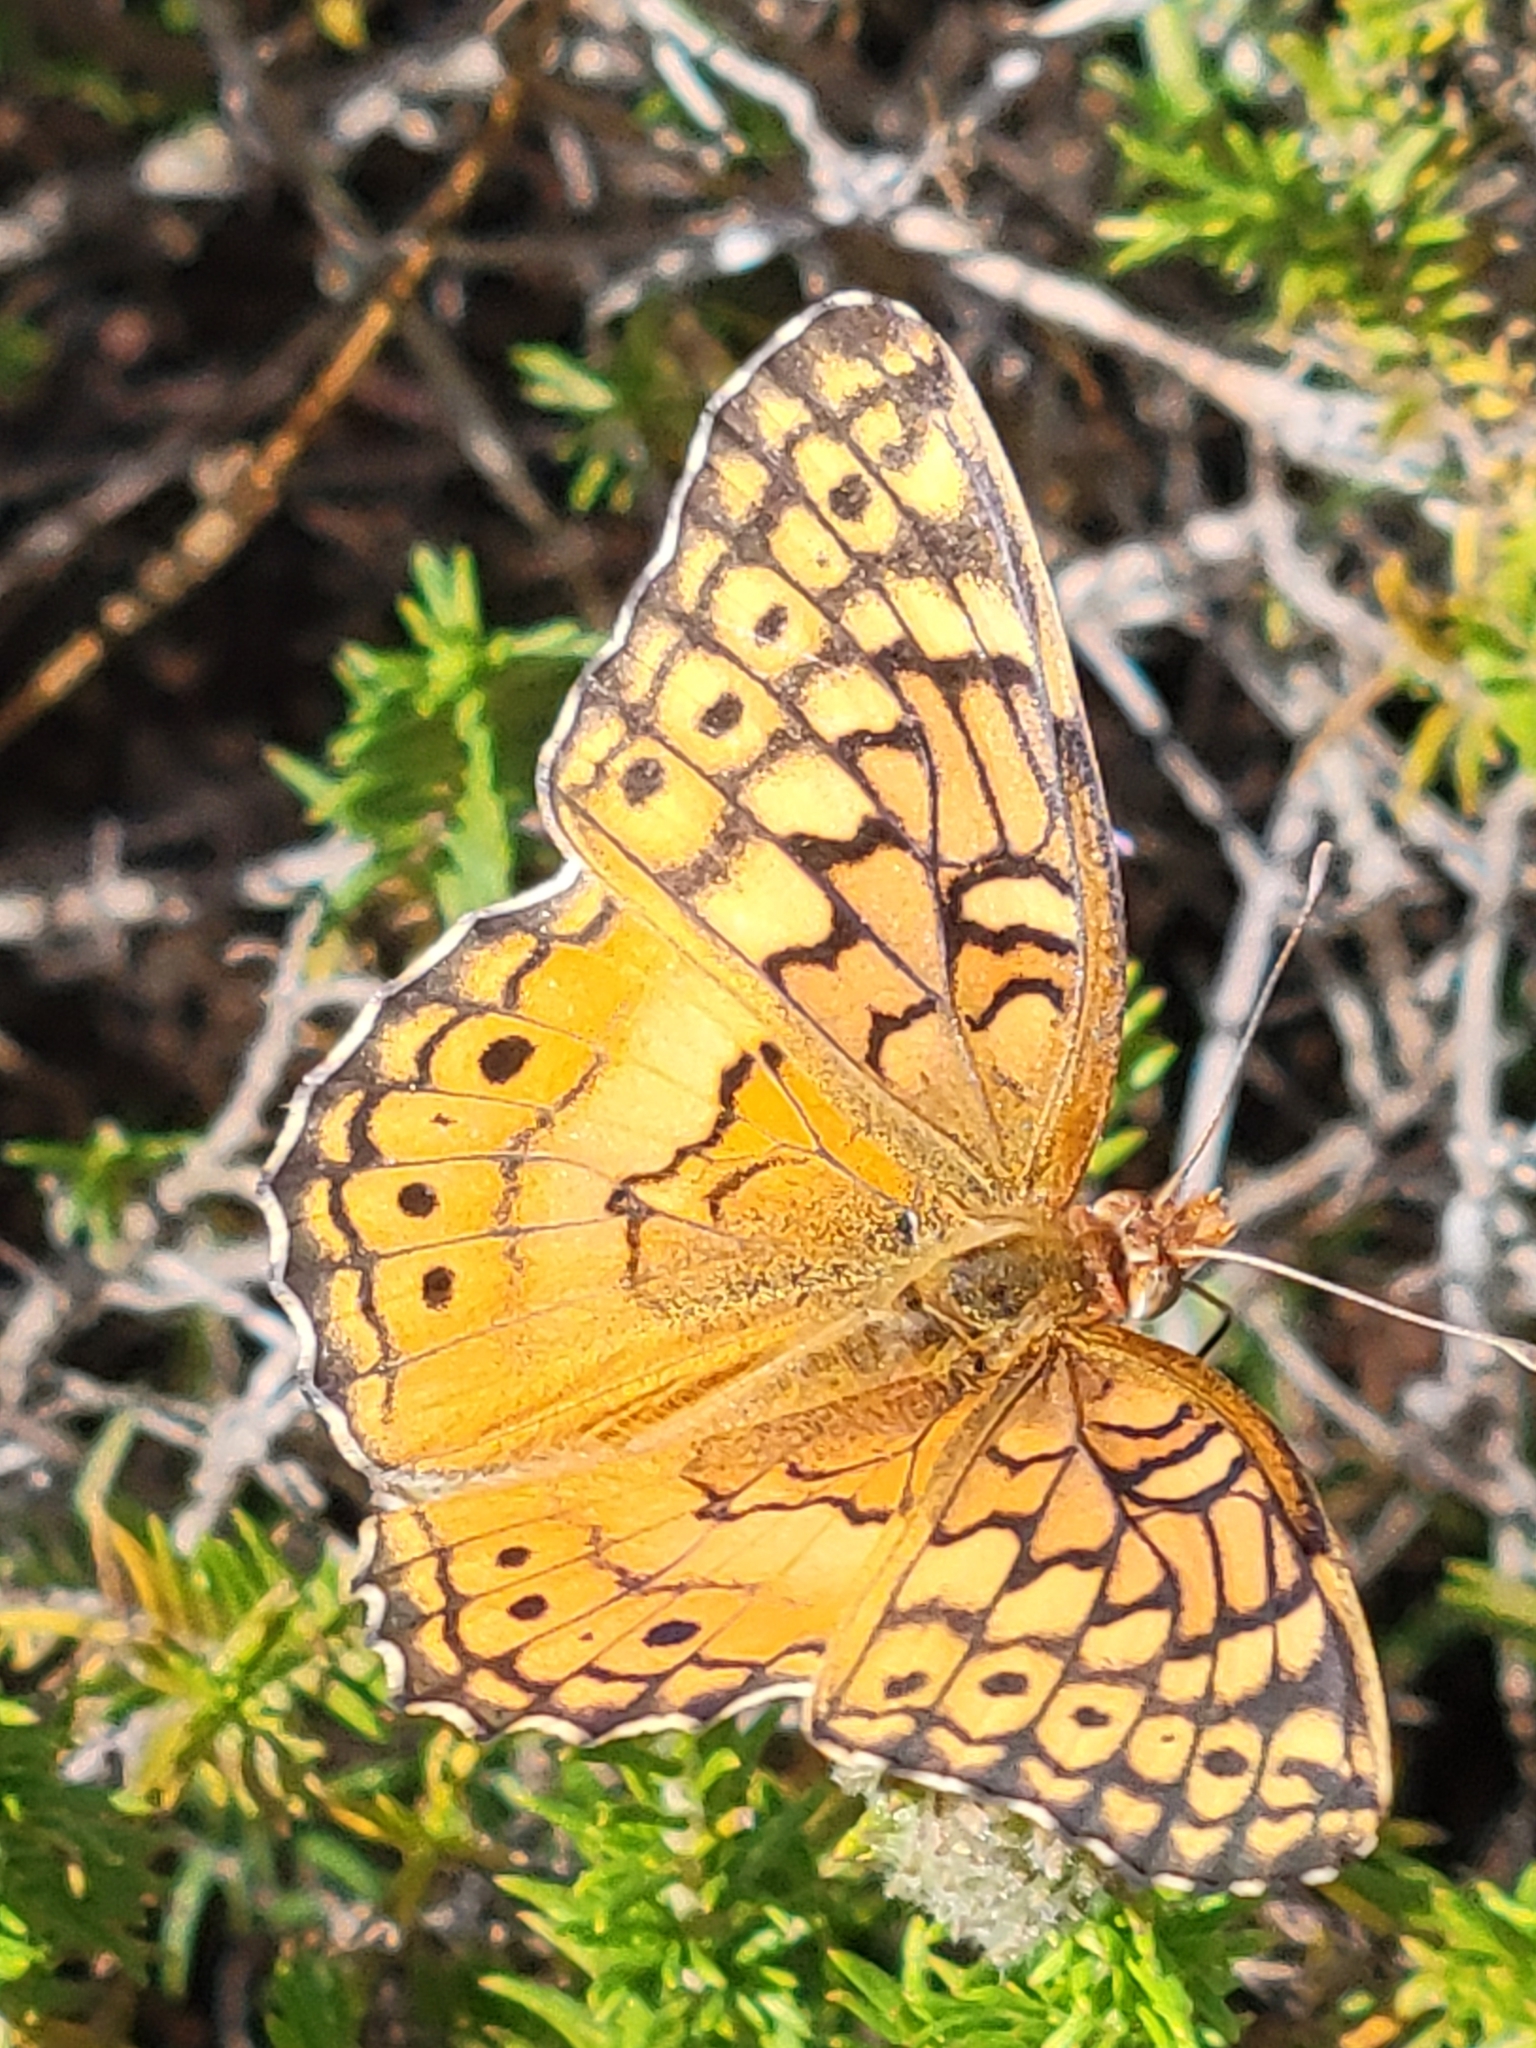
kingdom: Animalia
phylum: Arthropoda
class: Insecta
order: Lepidoptera
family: Nymphalidae
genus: Euptoieta
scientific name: Euptoieta claudia
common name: Variegated fritillary
